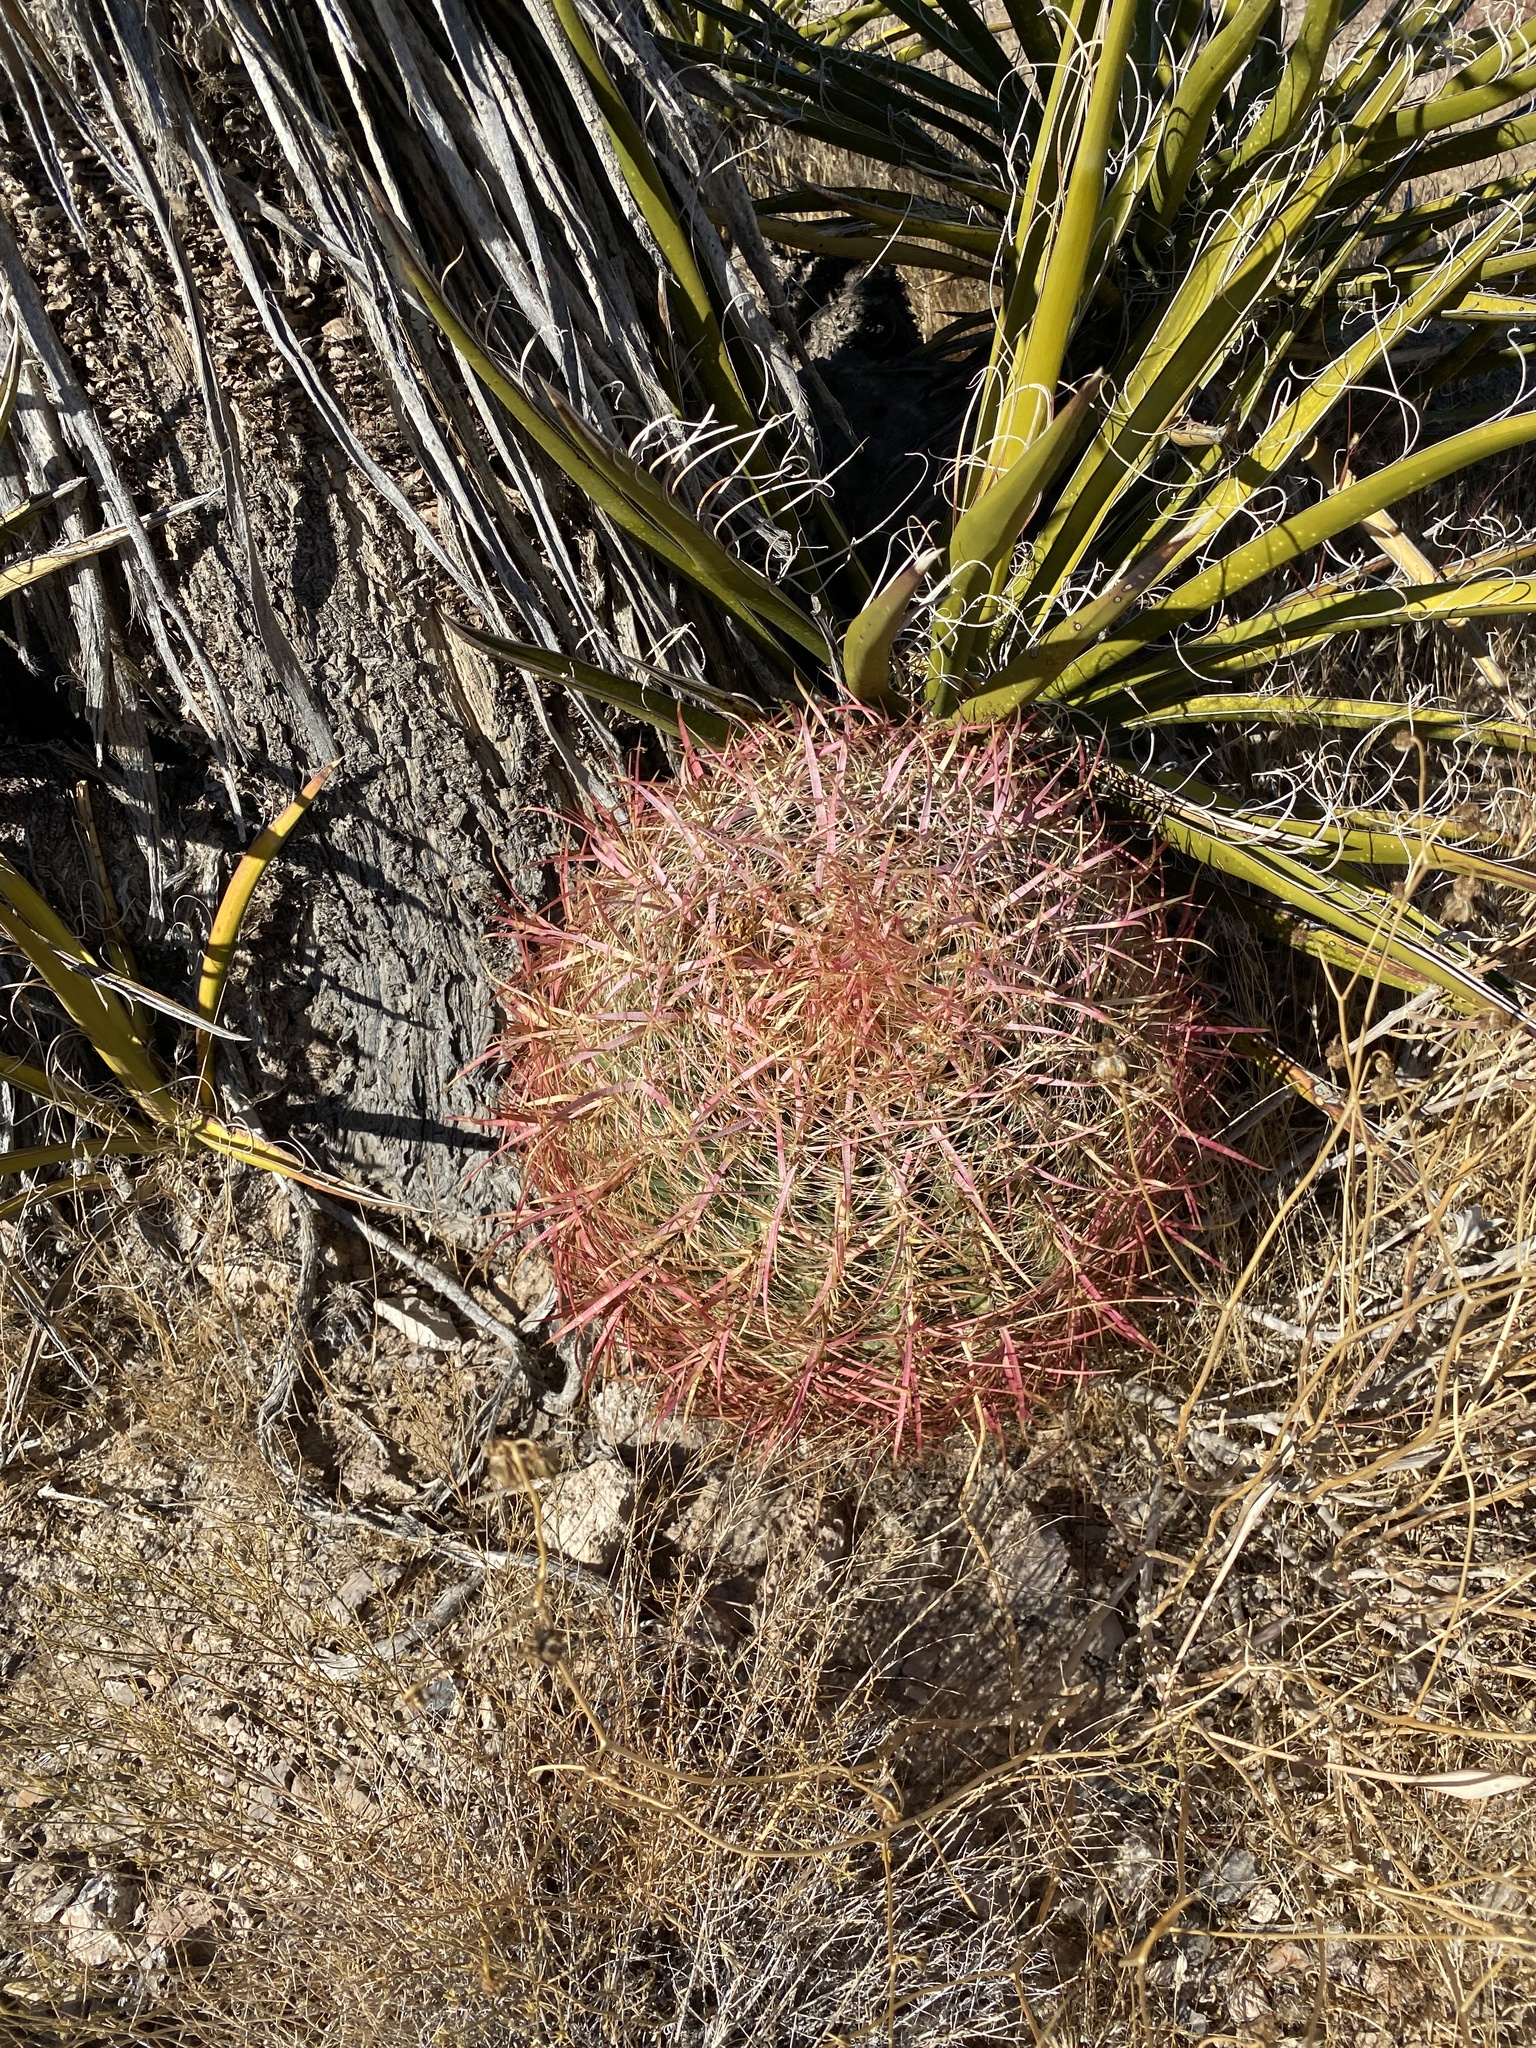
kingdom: Plantae
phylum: Tracheophyta
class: Magnoliopsida
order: Caryophyllales
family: Cactaceae
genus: Ferocactus
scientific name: Ferocactus cylindraceus
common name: California barrel cactus
